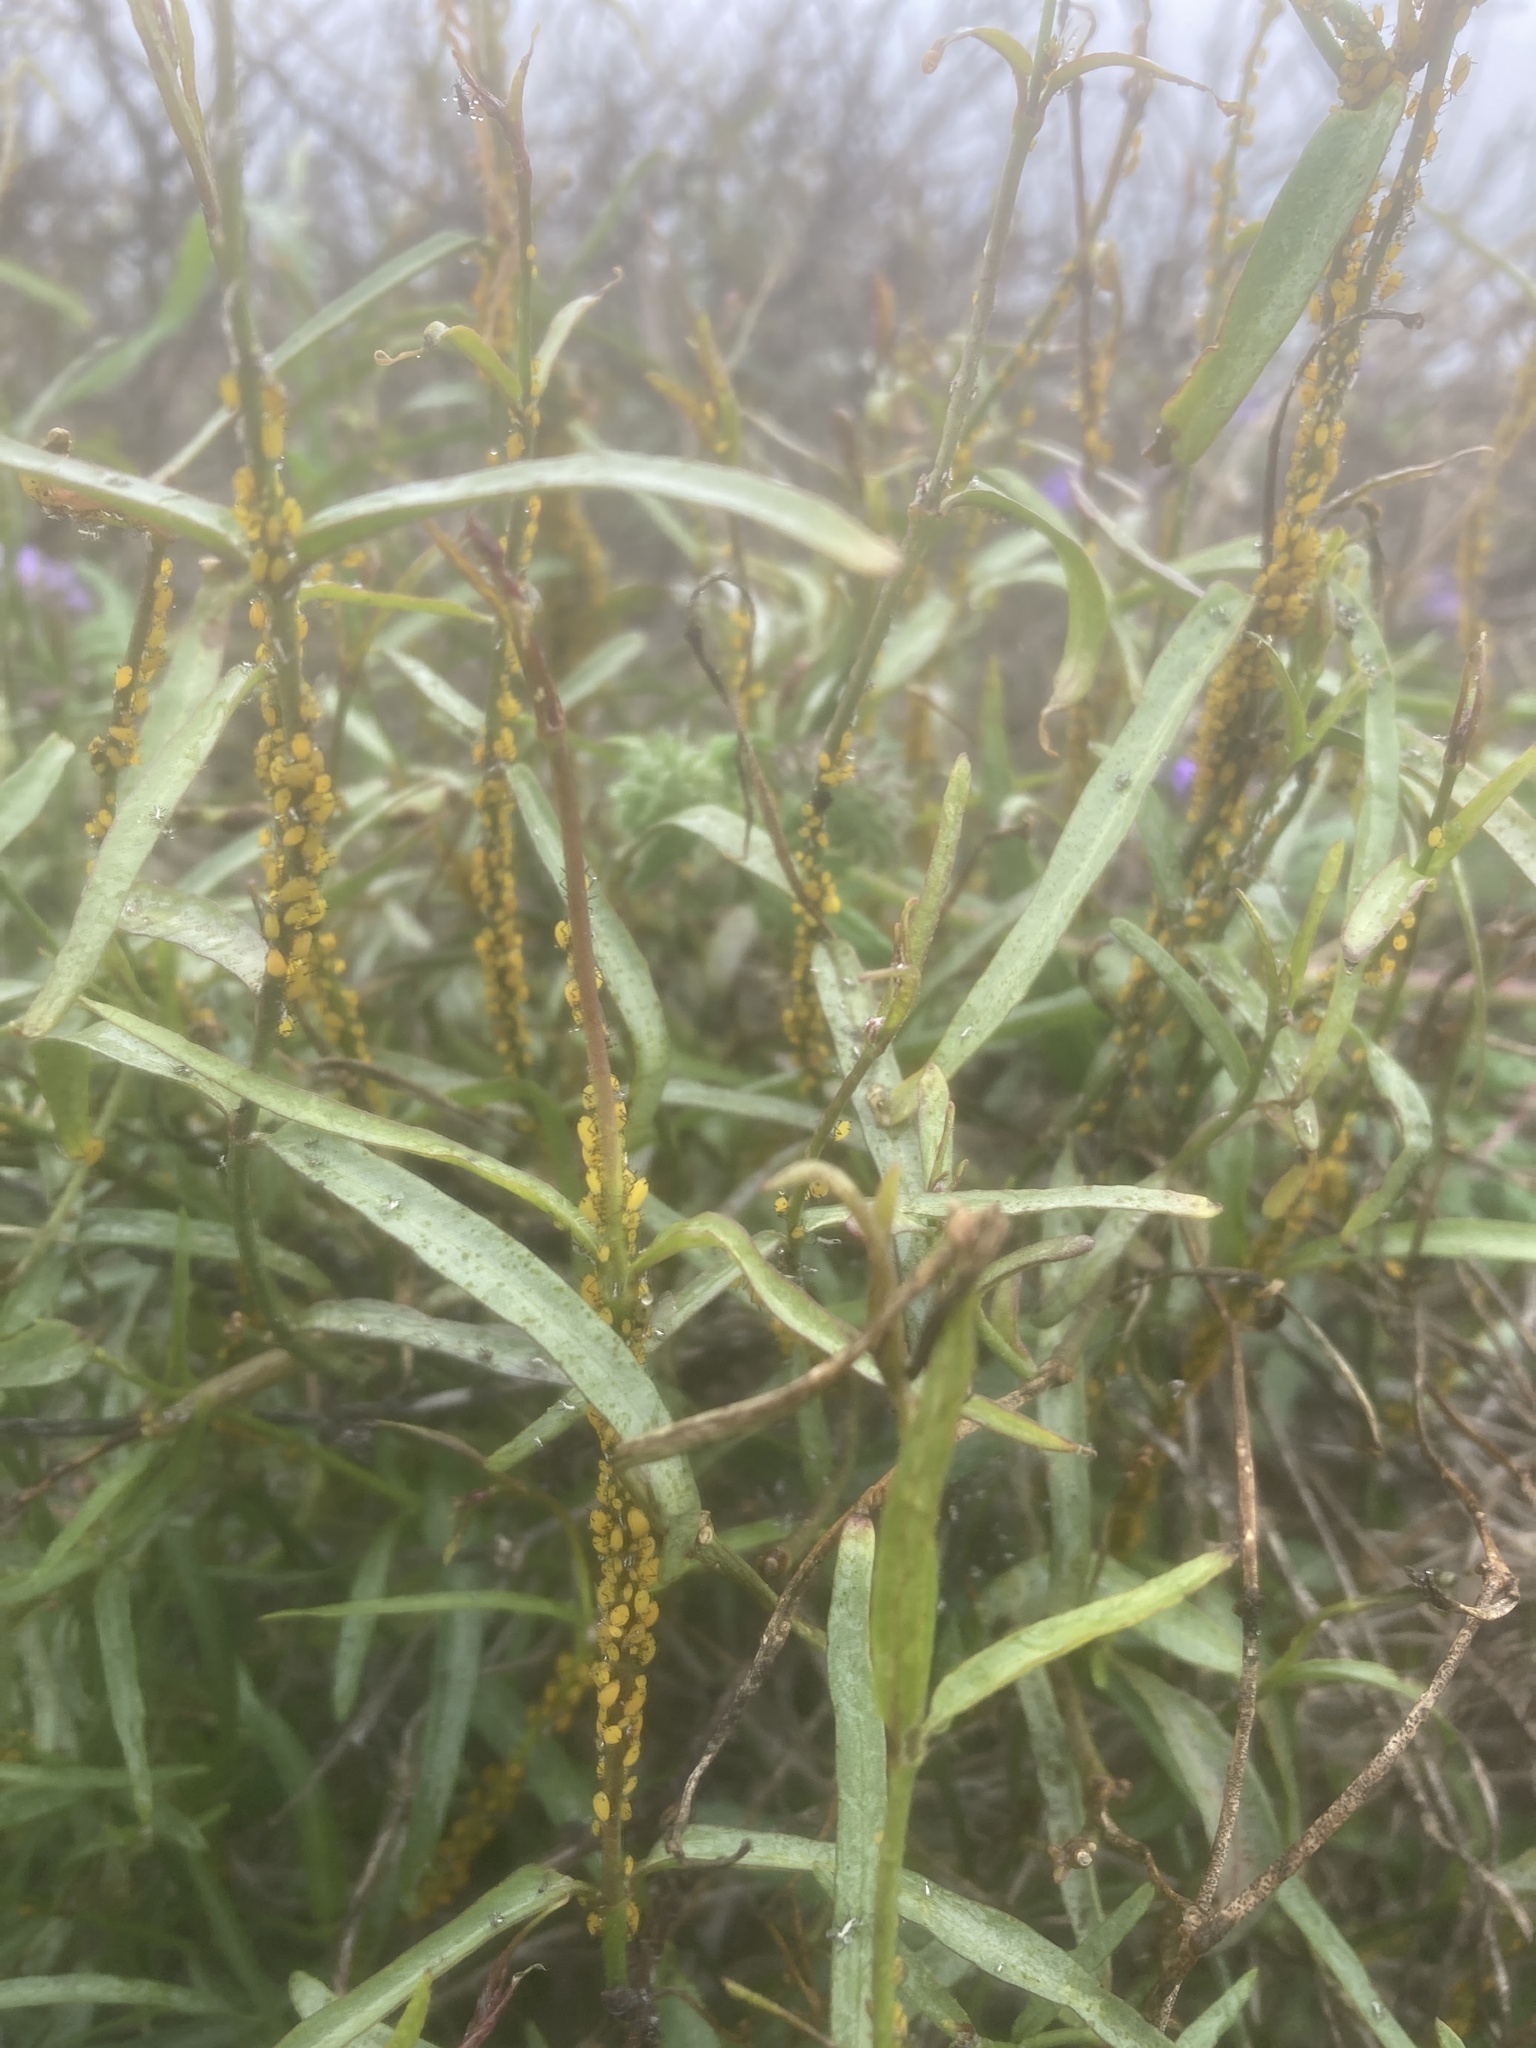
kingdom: Animalia
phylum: Arthropoda
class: Insecta
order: Hemiptera
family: Aphididae
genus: Aphis
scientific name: Aphis nerii
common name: Oleander aphid
